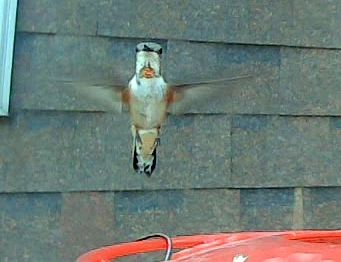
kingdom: Animalia
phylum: Chordata
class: Aves
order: Apodiformes
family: Trochilidae
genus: Selasphorus
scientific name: Selasphorus rufus
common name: Rufous hummingbird
